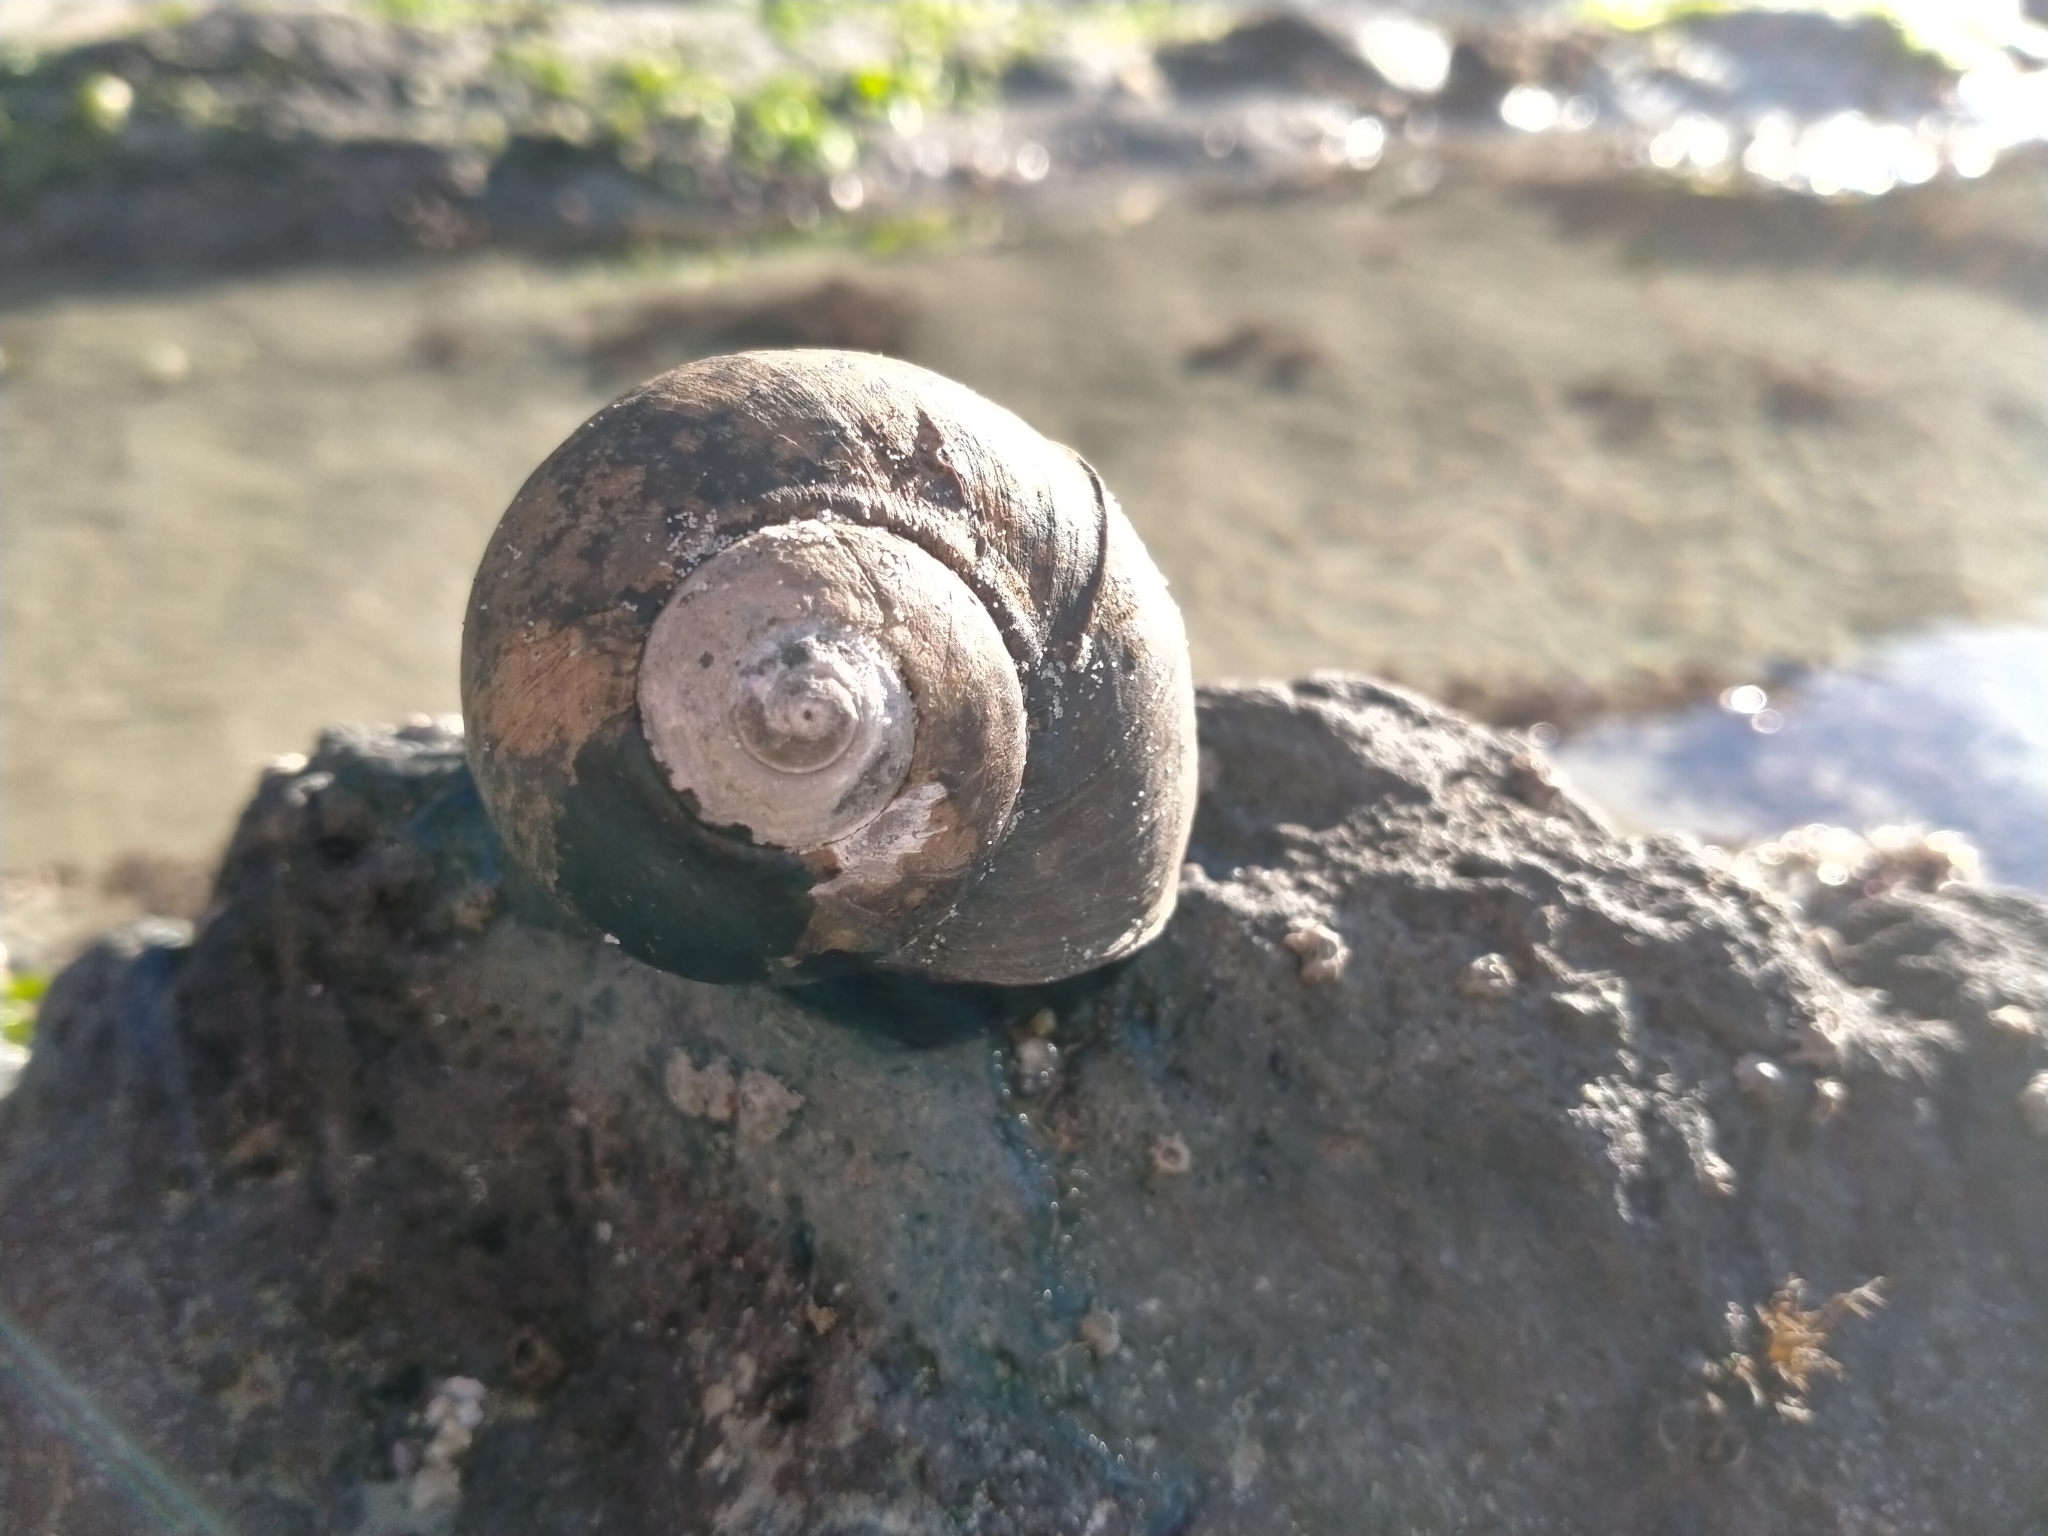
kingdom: Animalia
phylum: Mollusca
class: Gastropoda
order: Trochida
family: Turbinidae
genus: Lunella
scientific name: Lunella smaragda
